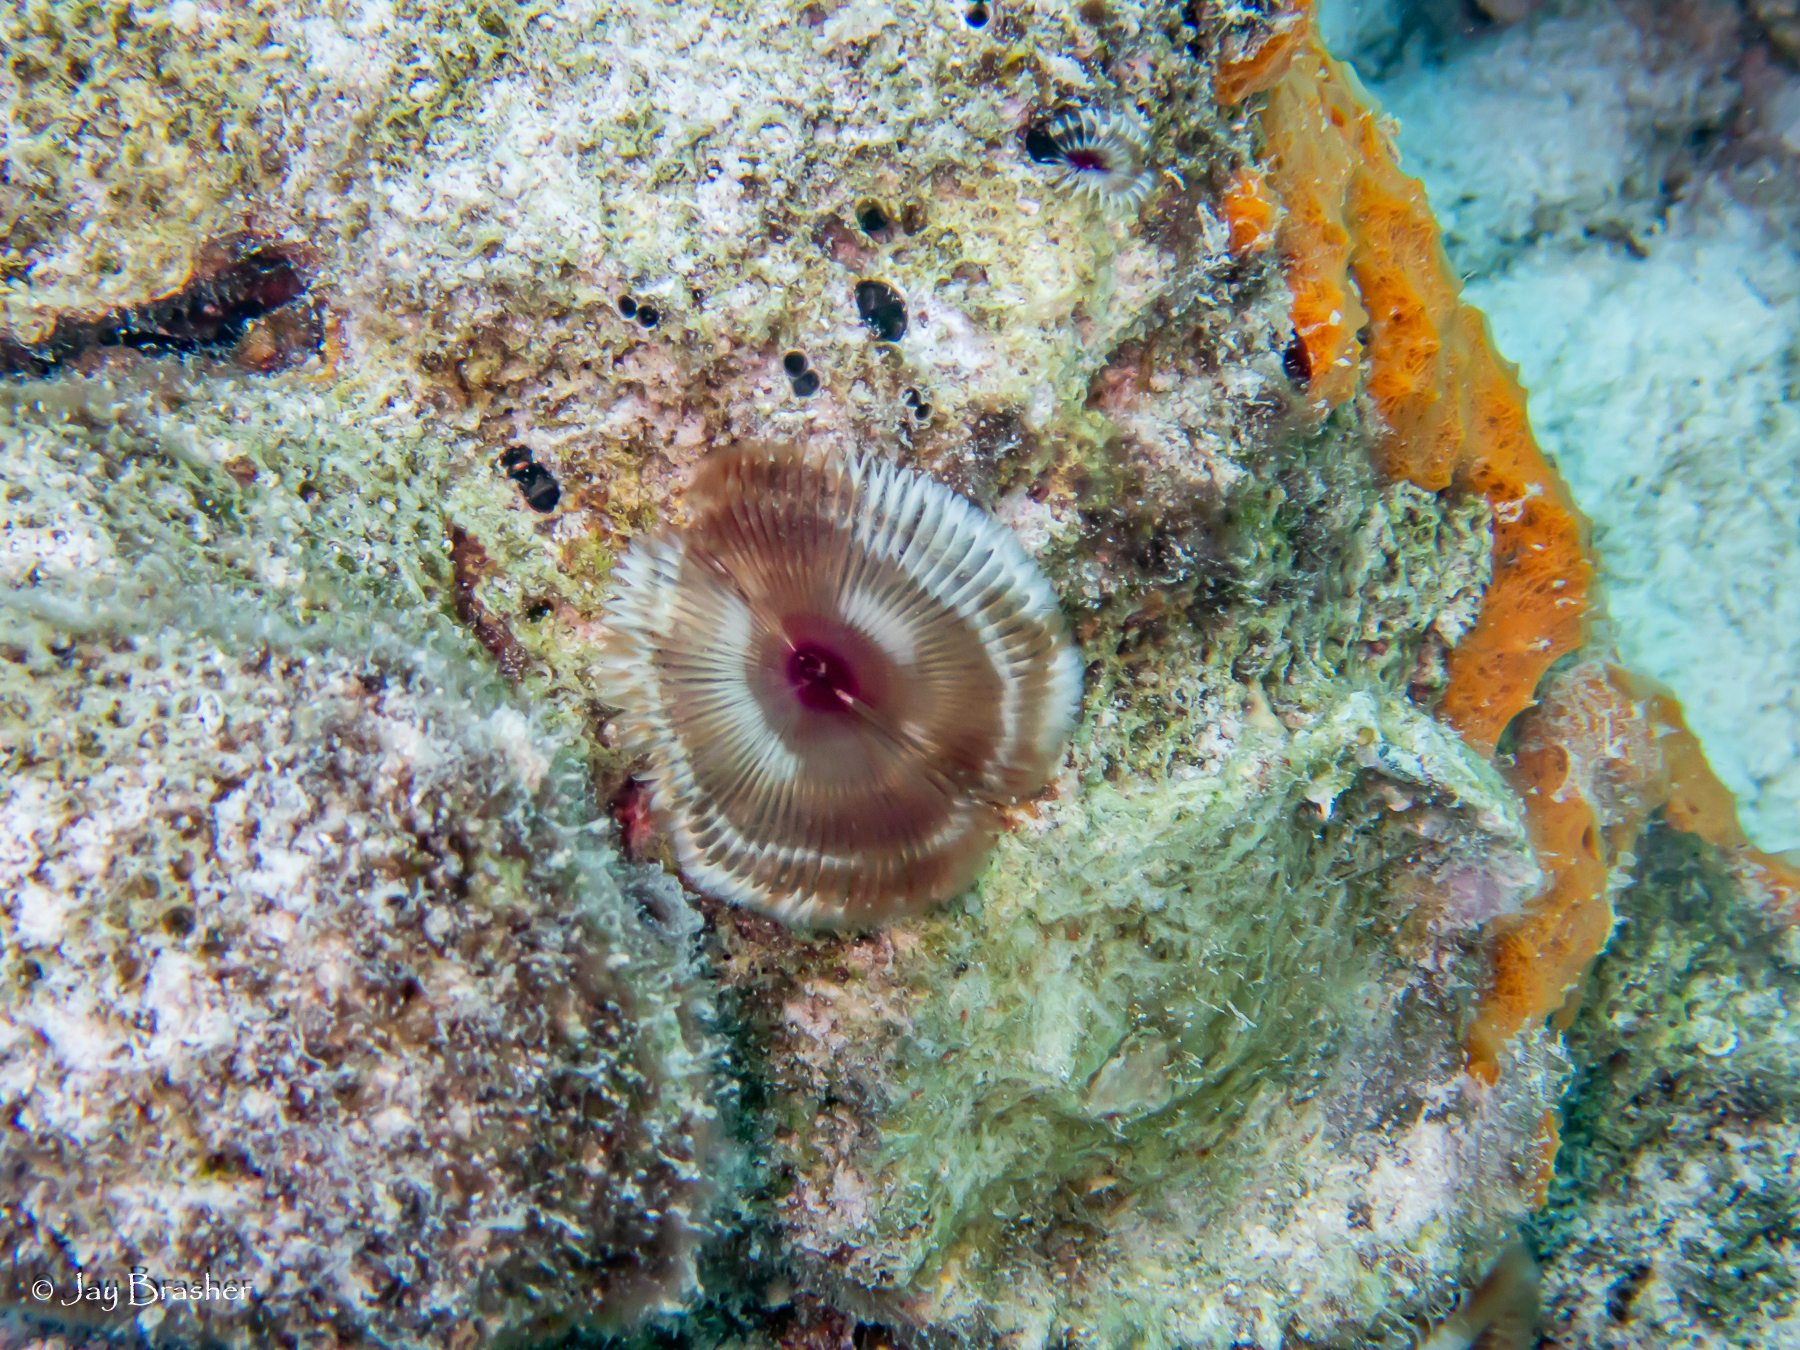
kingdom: Animalia
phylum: Annelida
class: Polychaeta
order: Sabellida
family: Sabellidae
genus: Anamobaea
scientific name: Anamobaea orstedii
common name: Split-crown feather duster
